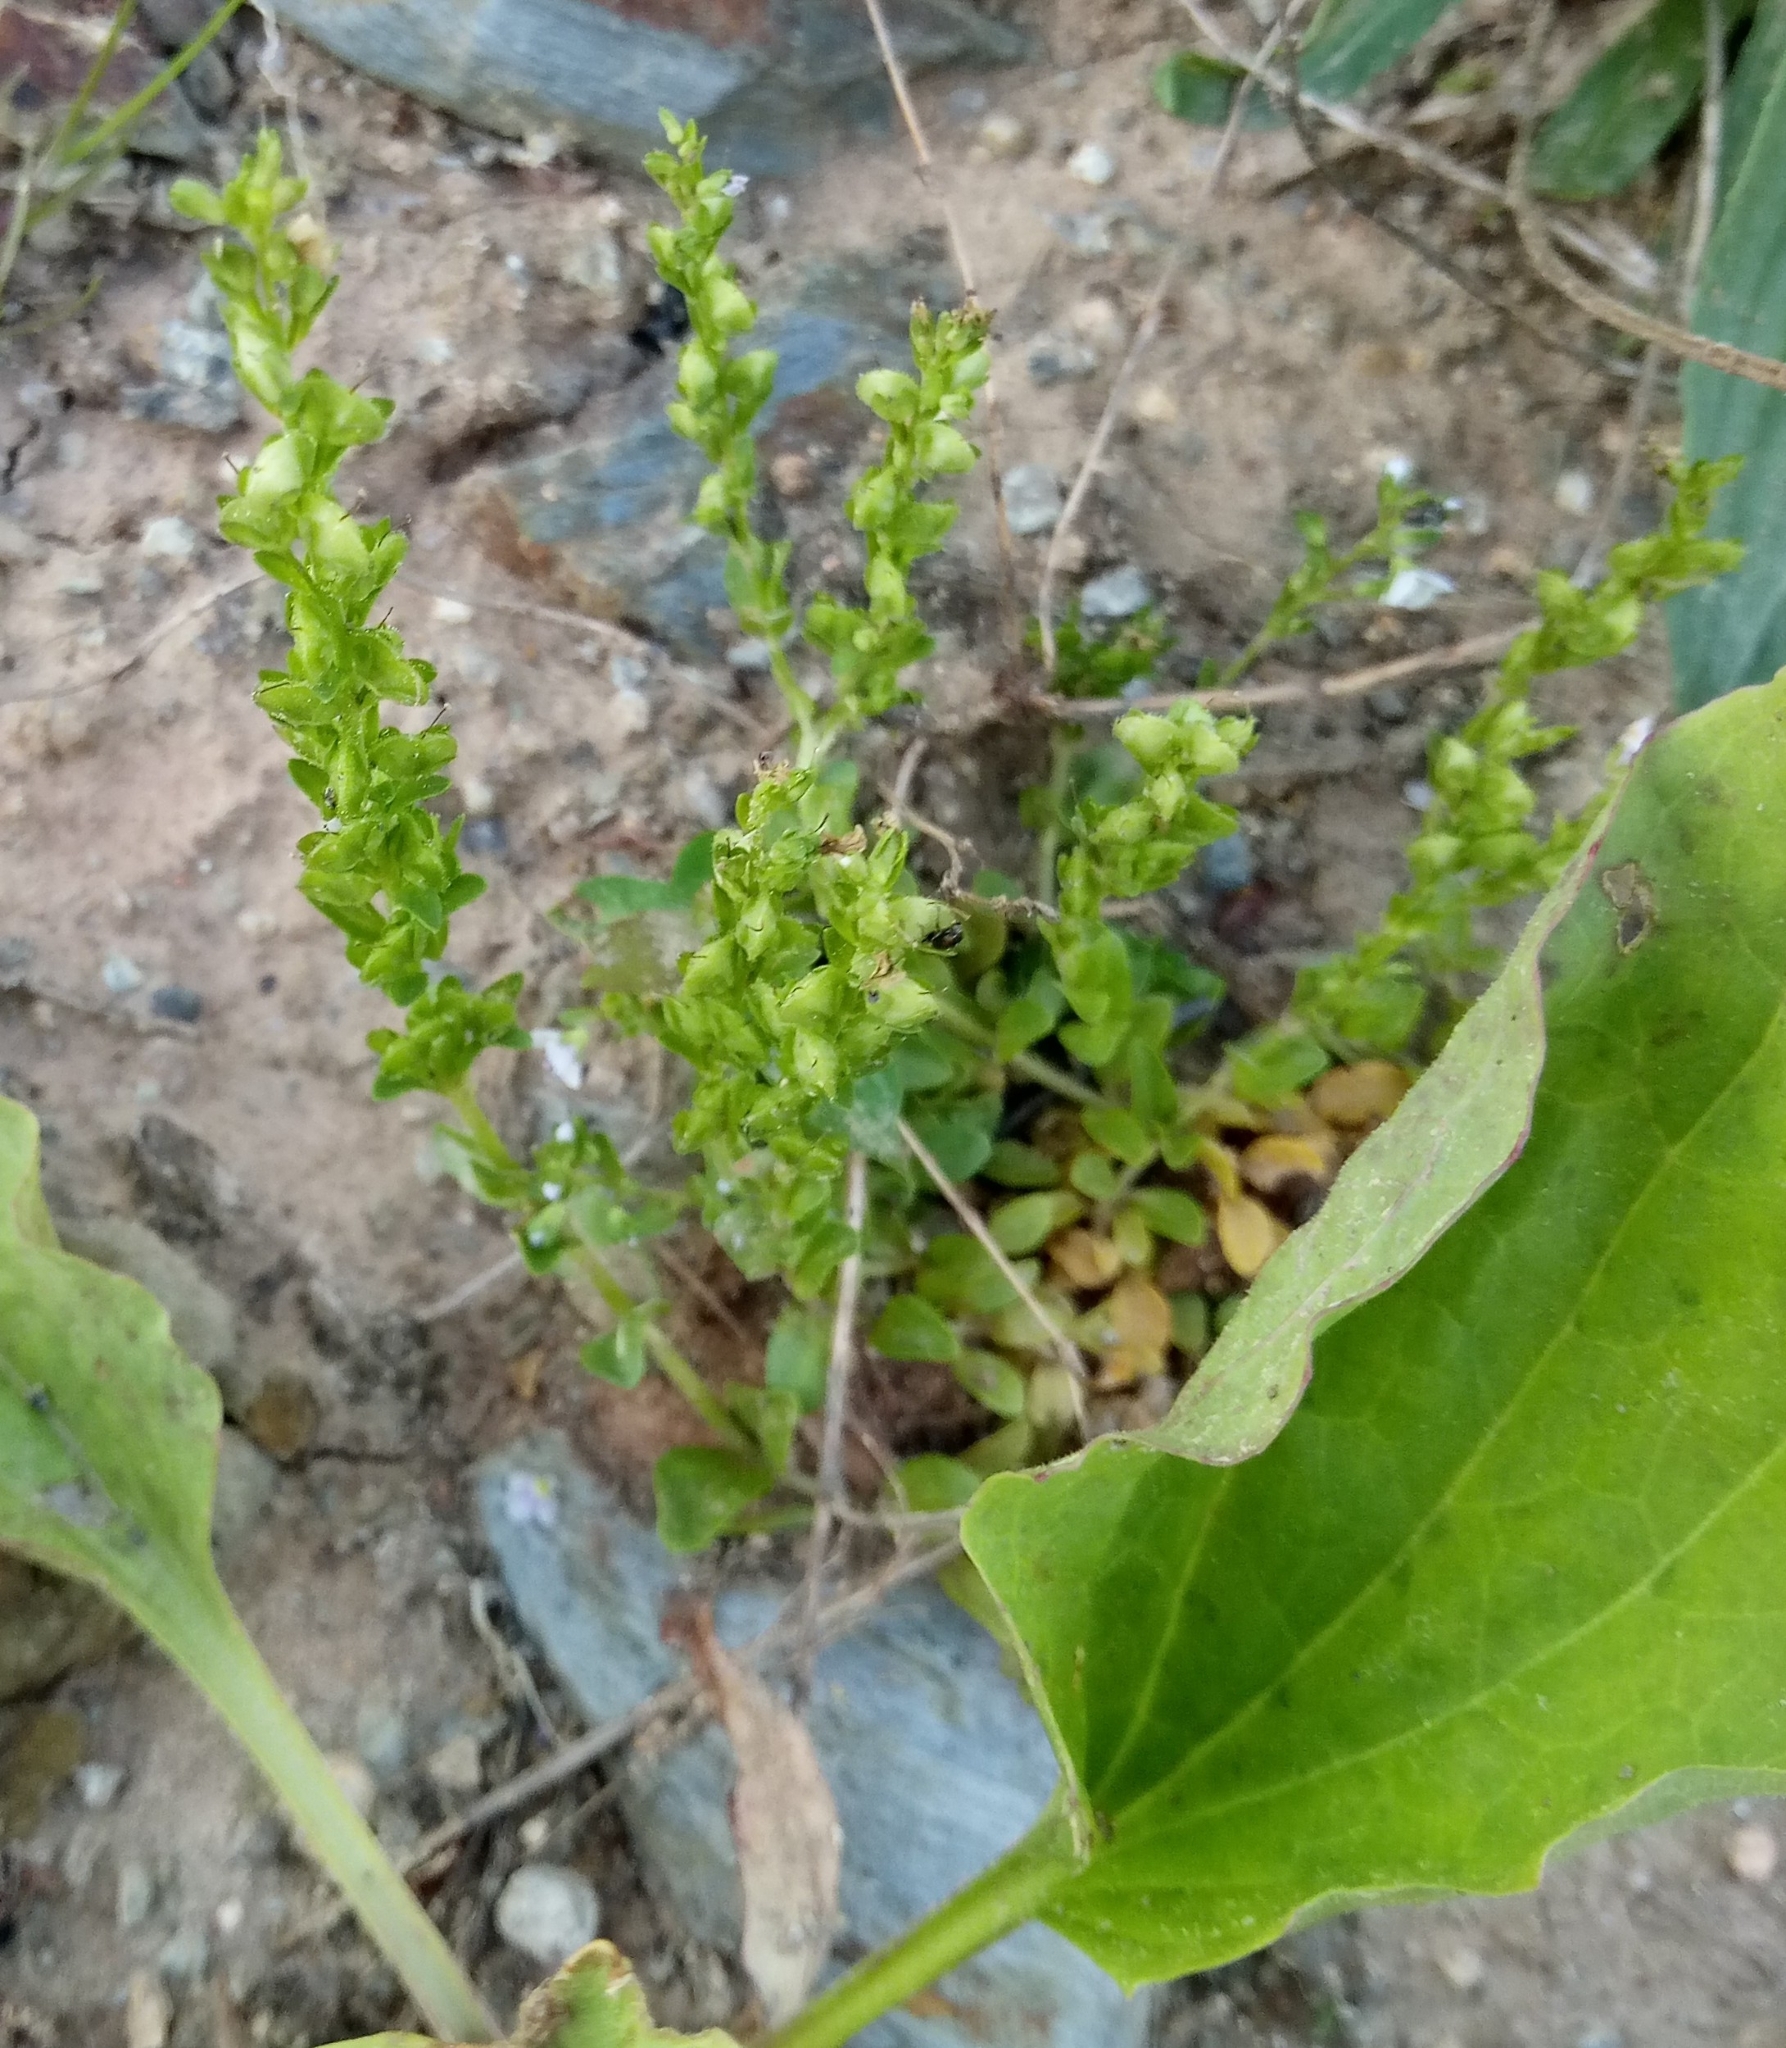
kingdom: Plantae
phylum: Tracheophyta
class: Magnoliopsida
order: Lamiales
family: Plantaginaceae
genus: Veronica
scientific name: Veronica serpyllifolia
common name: Thyme-leaved speedwell
